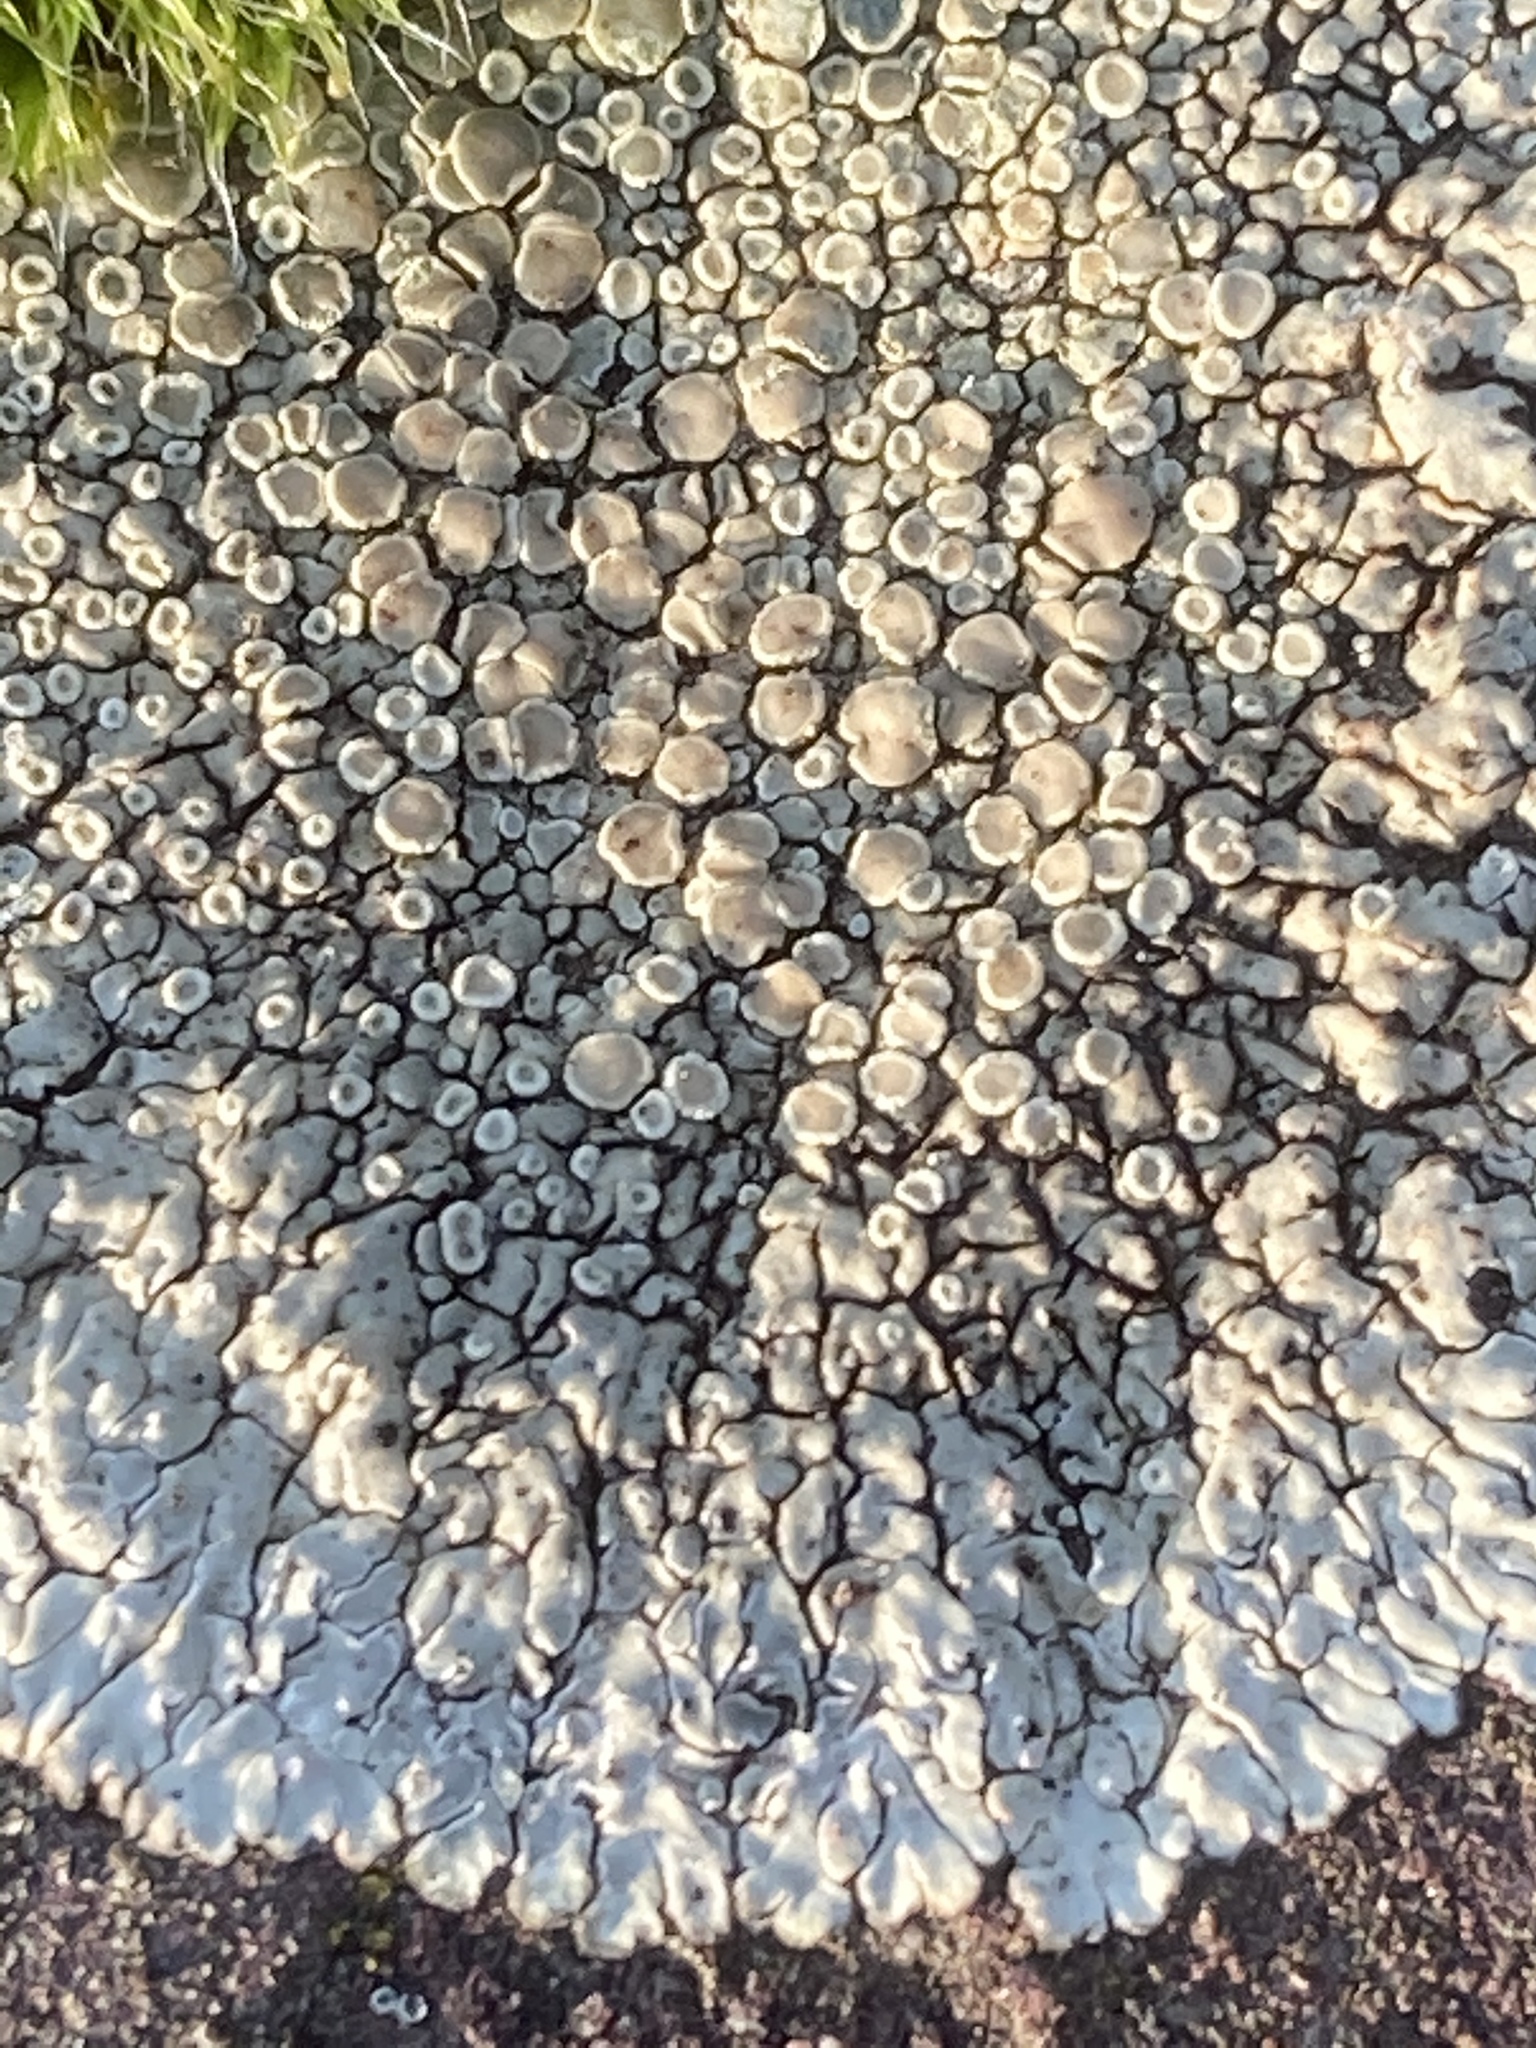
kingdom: Fungi
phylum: Ascomycota
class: Lecanoromycetes
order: Lecanorales
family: Lecanoraceae
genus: Protoparmeliopsis
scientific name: Protoparmeliopsis muralis
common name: Stonewall rim lichen
